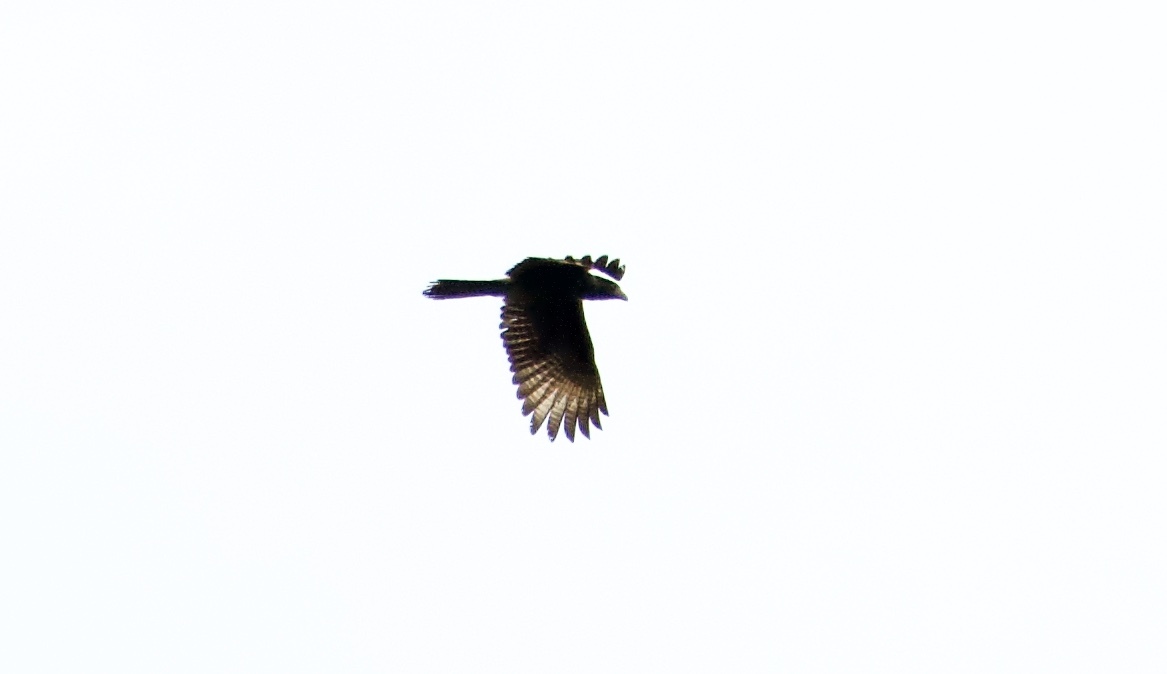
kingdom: Animalia
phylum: Chordata
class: Aves
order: Falconiformes
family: Falconidae
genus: Daptrius
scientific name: Daptrius
